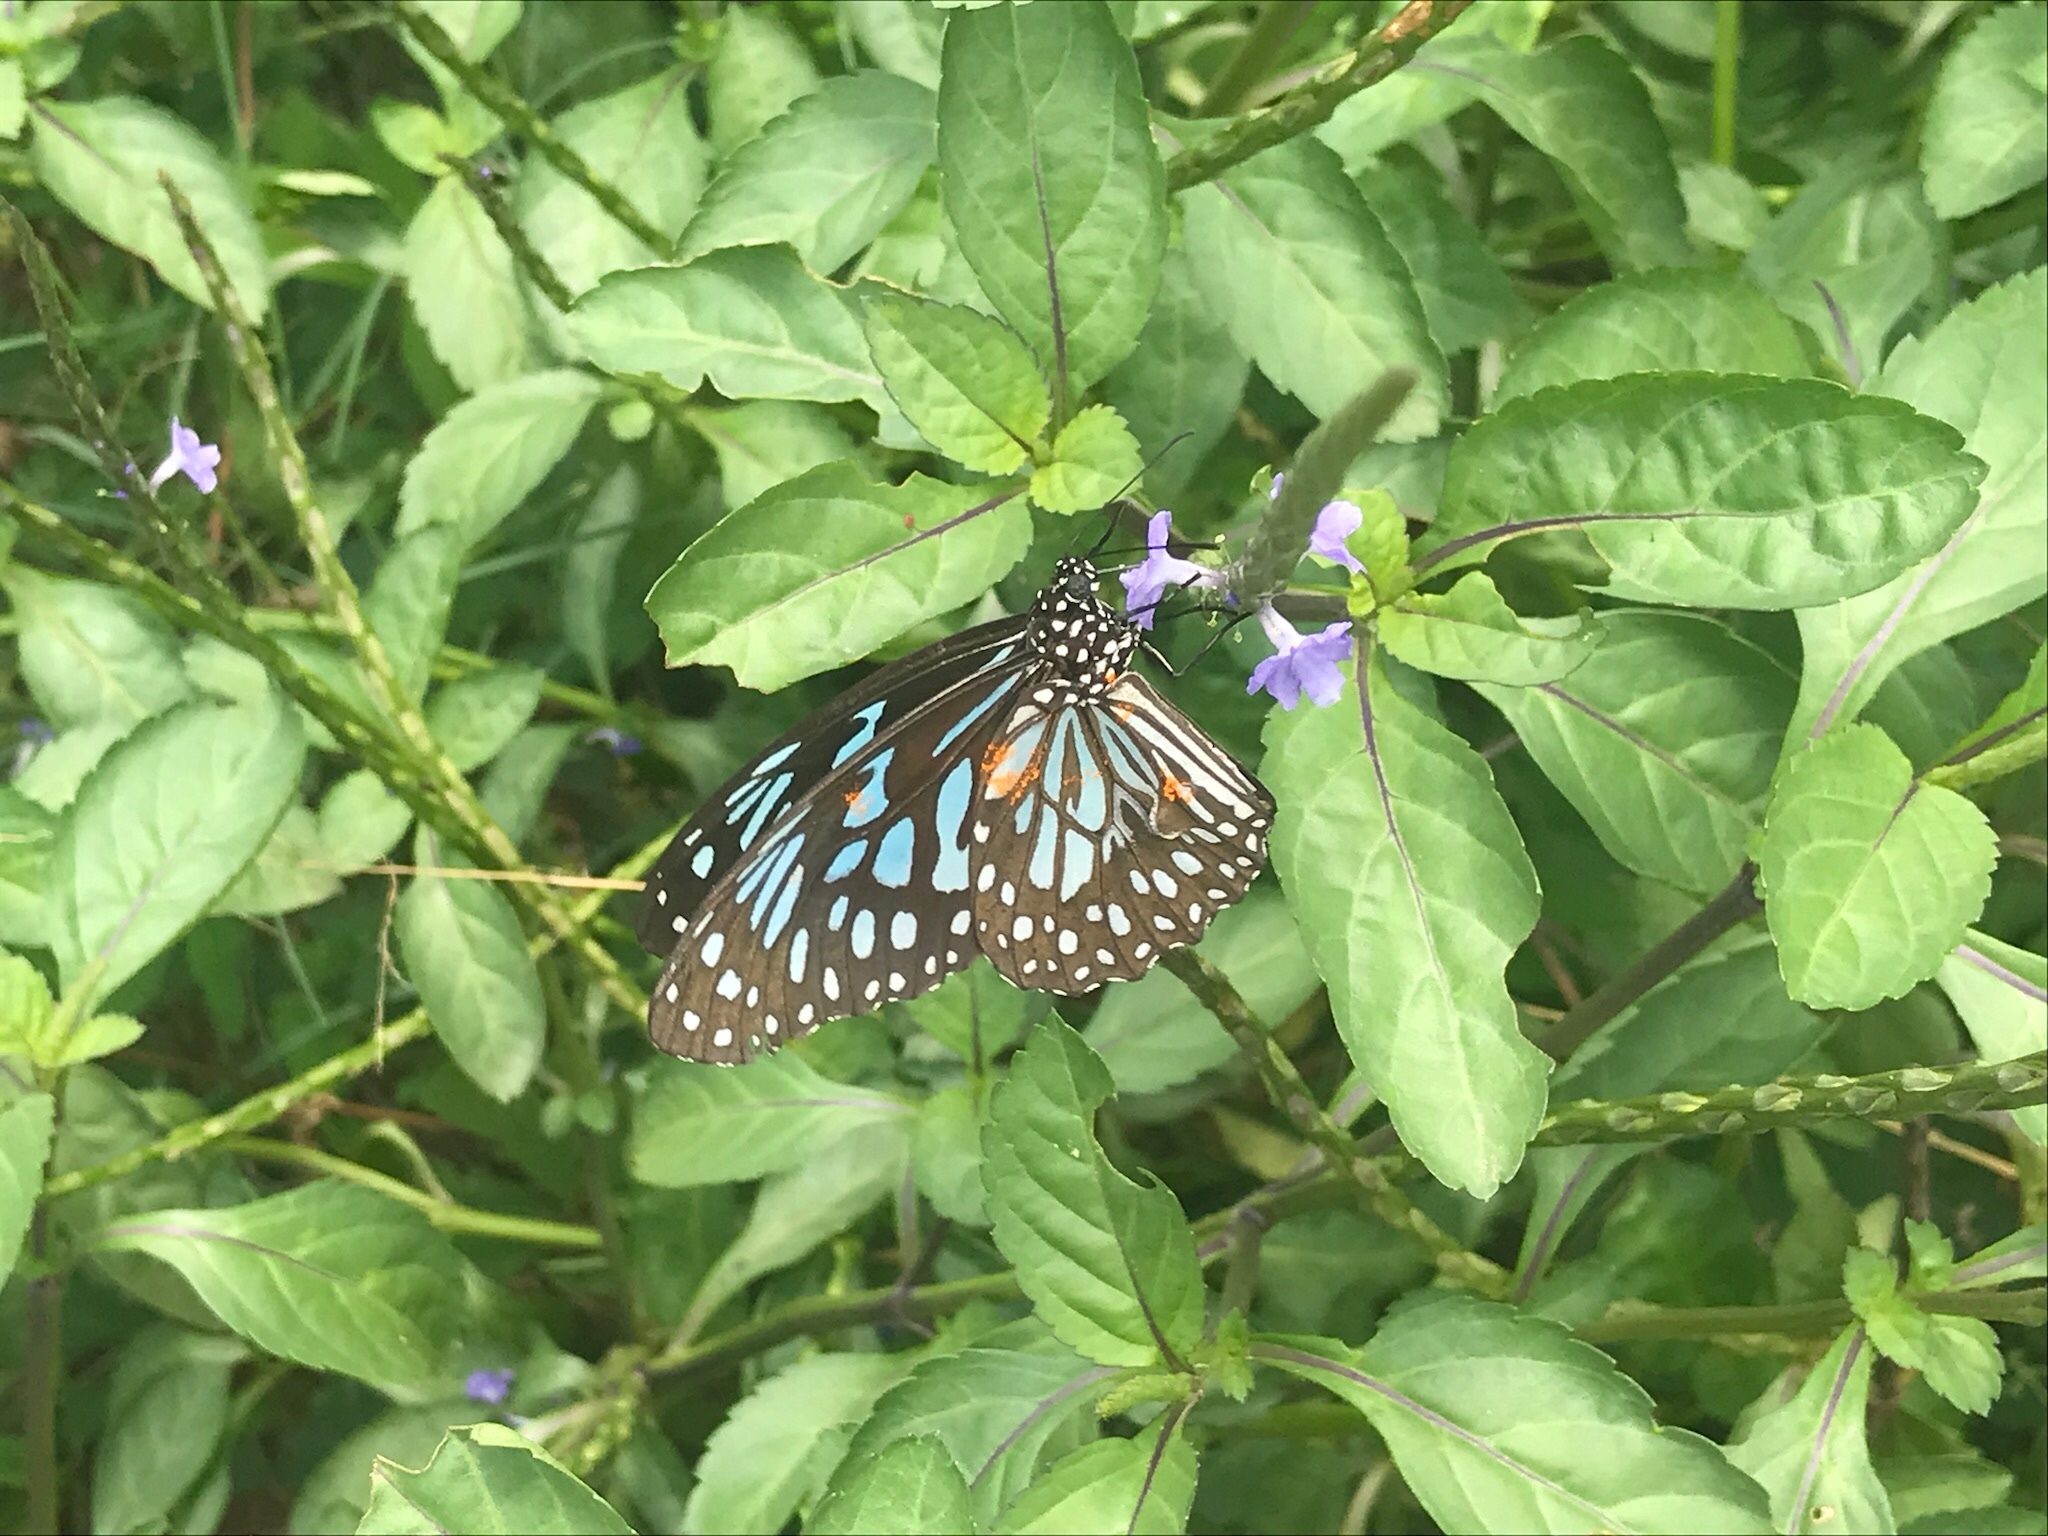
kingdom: Animalia
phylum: Arthropoda
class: Insecta
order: Lepidoptera
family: Nymphalidae
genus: Tirumala
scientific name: Tirumala septentrionis
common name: Dark blue tiger butterfly
